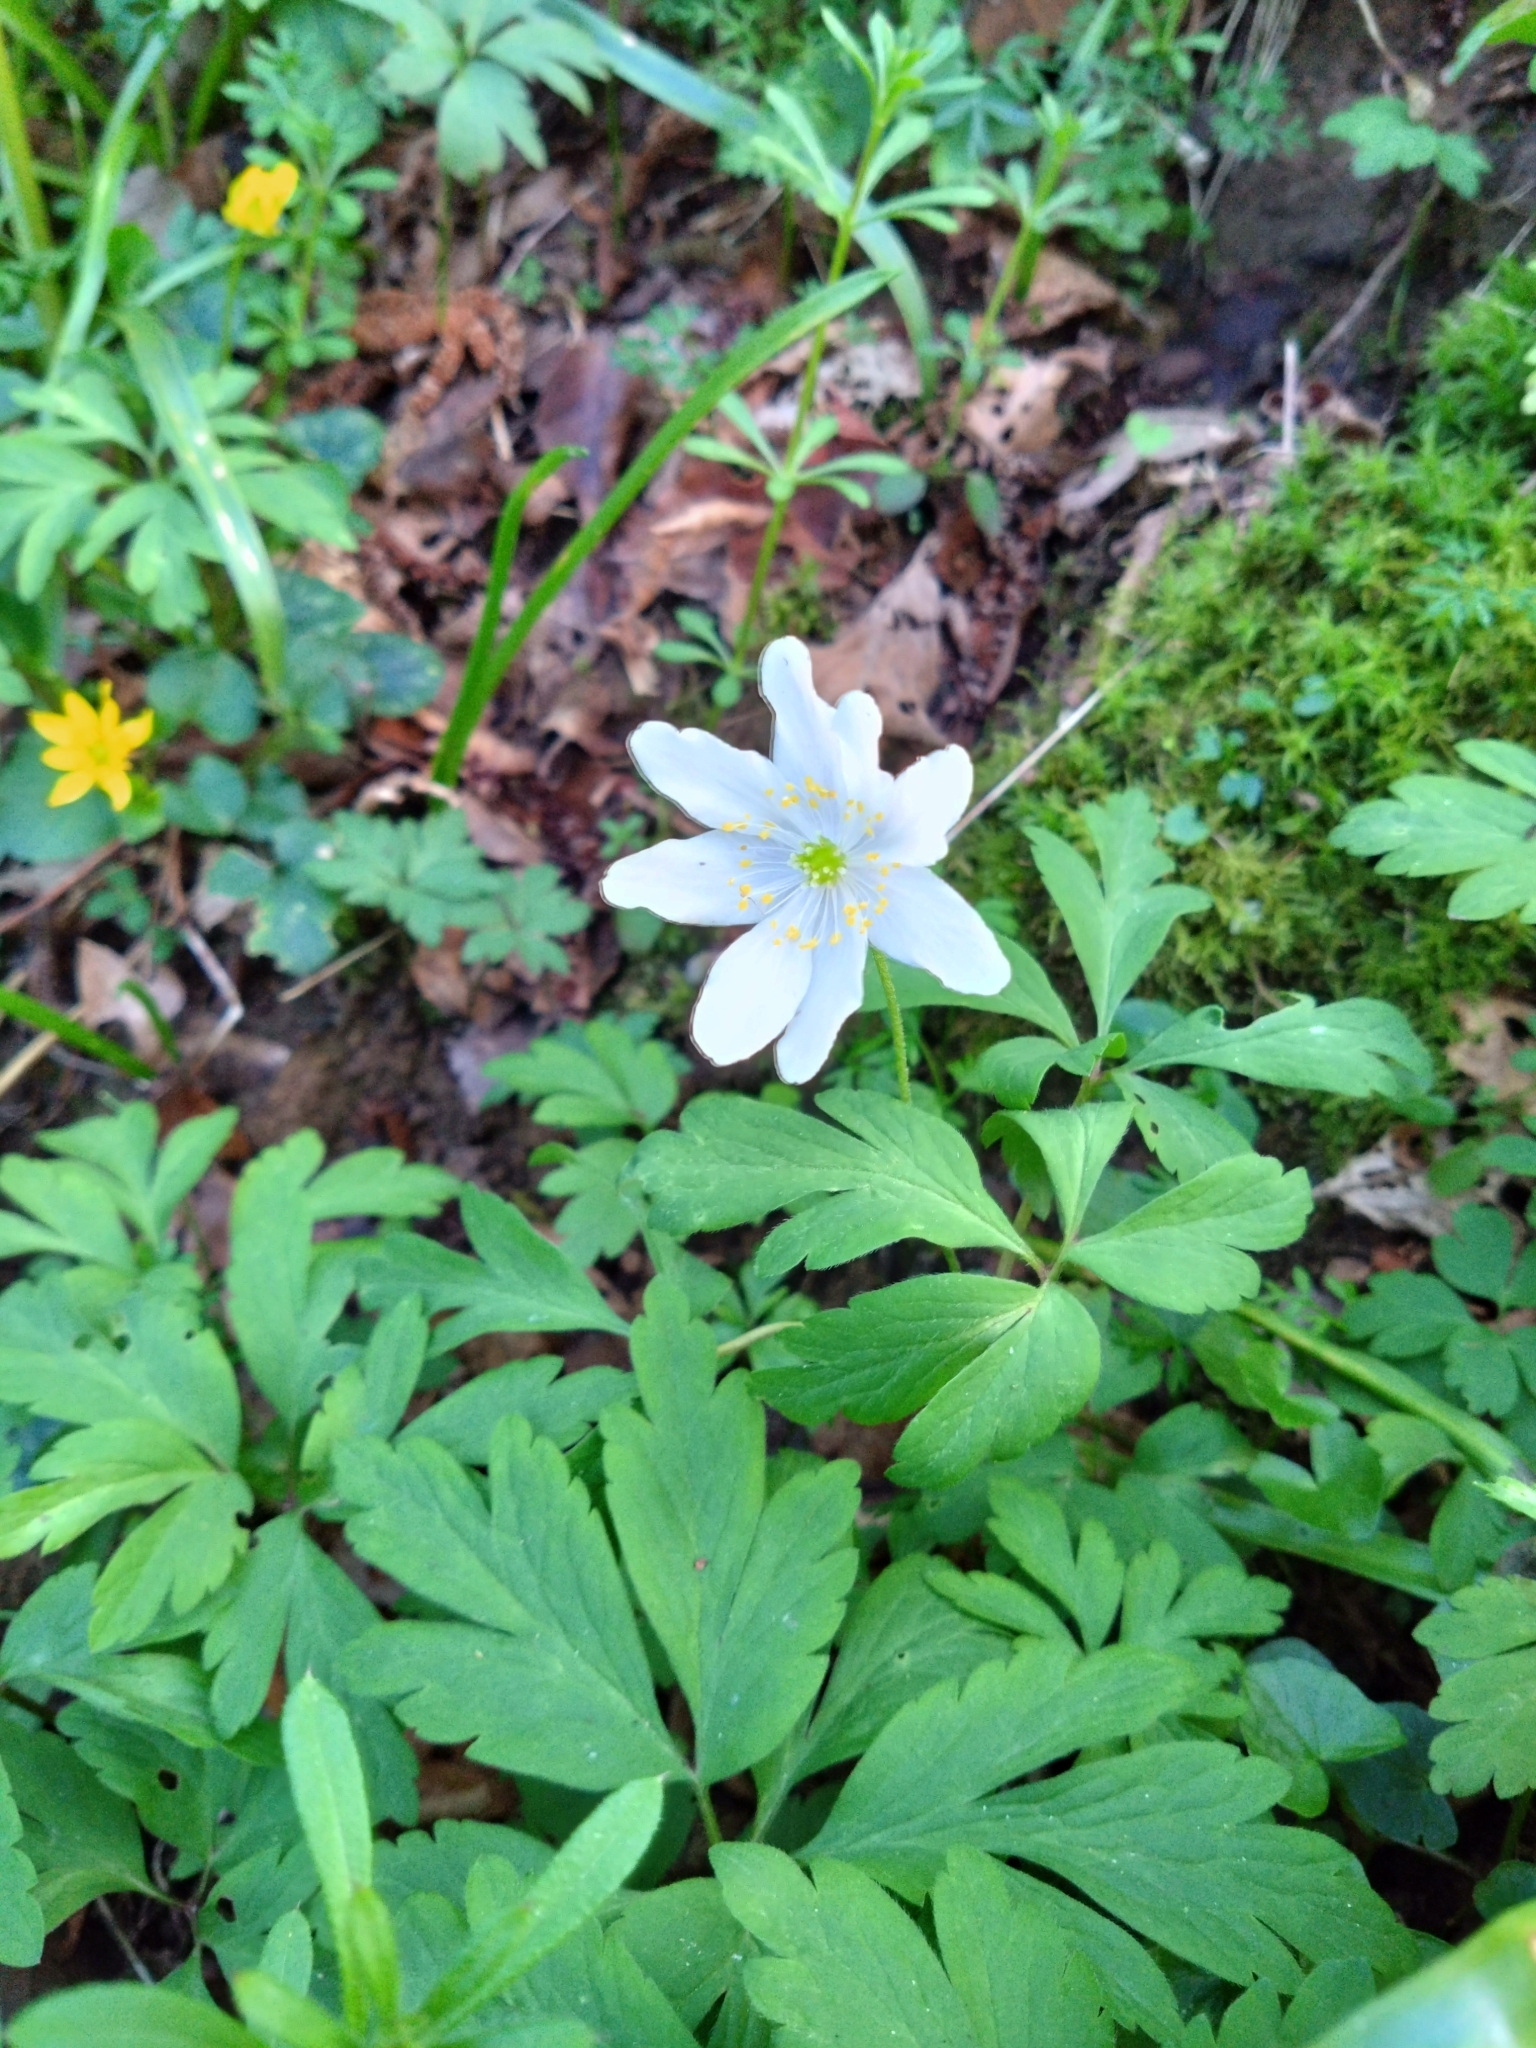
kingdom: Plantae
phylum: Tracheophyta
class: Magnoliopsida
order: Ranunculales
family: Ranunculaceae
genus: Anemone
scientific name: Anemone nemorosa
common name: Wood anemone
